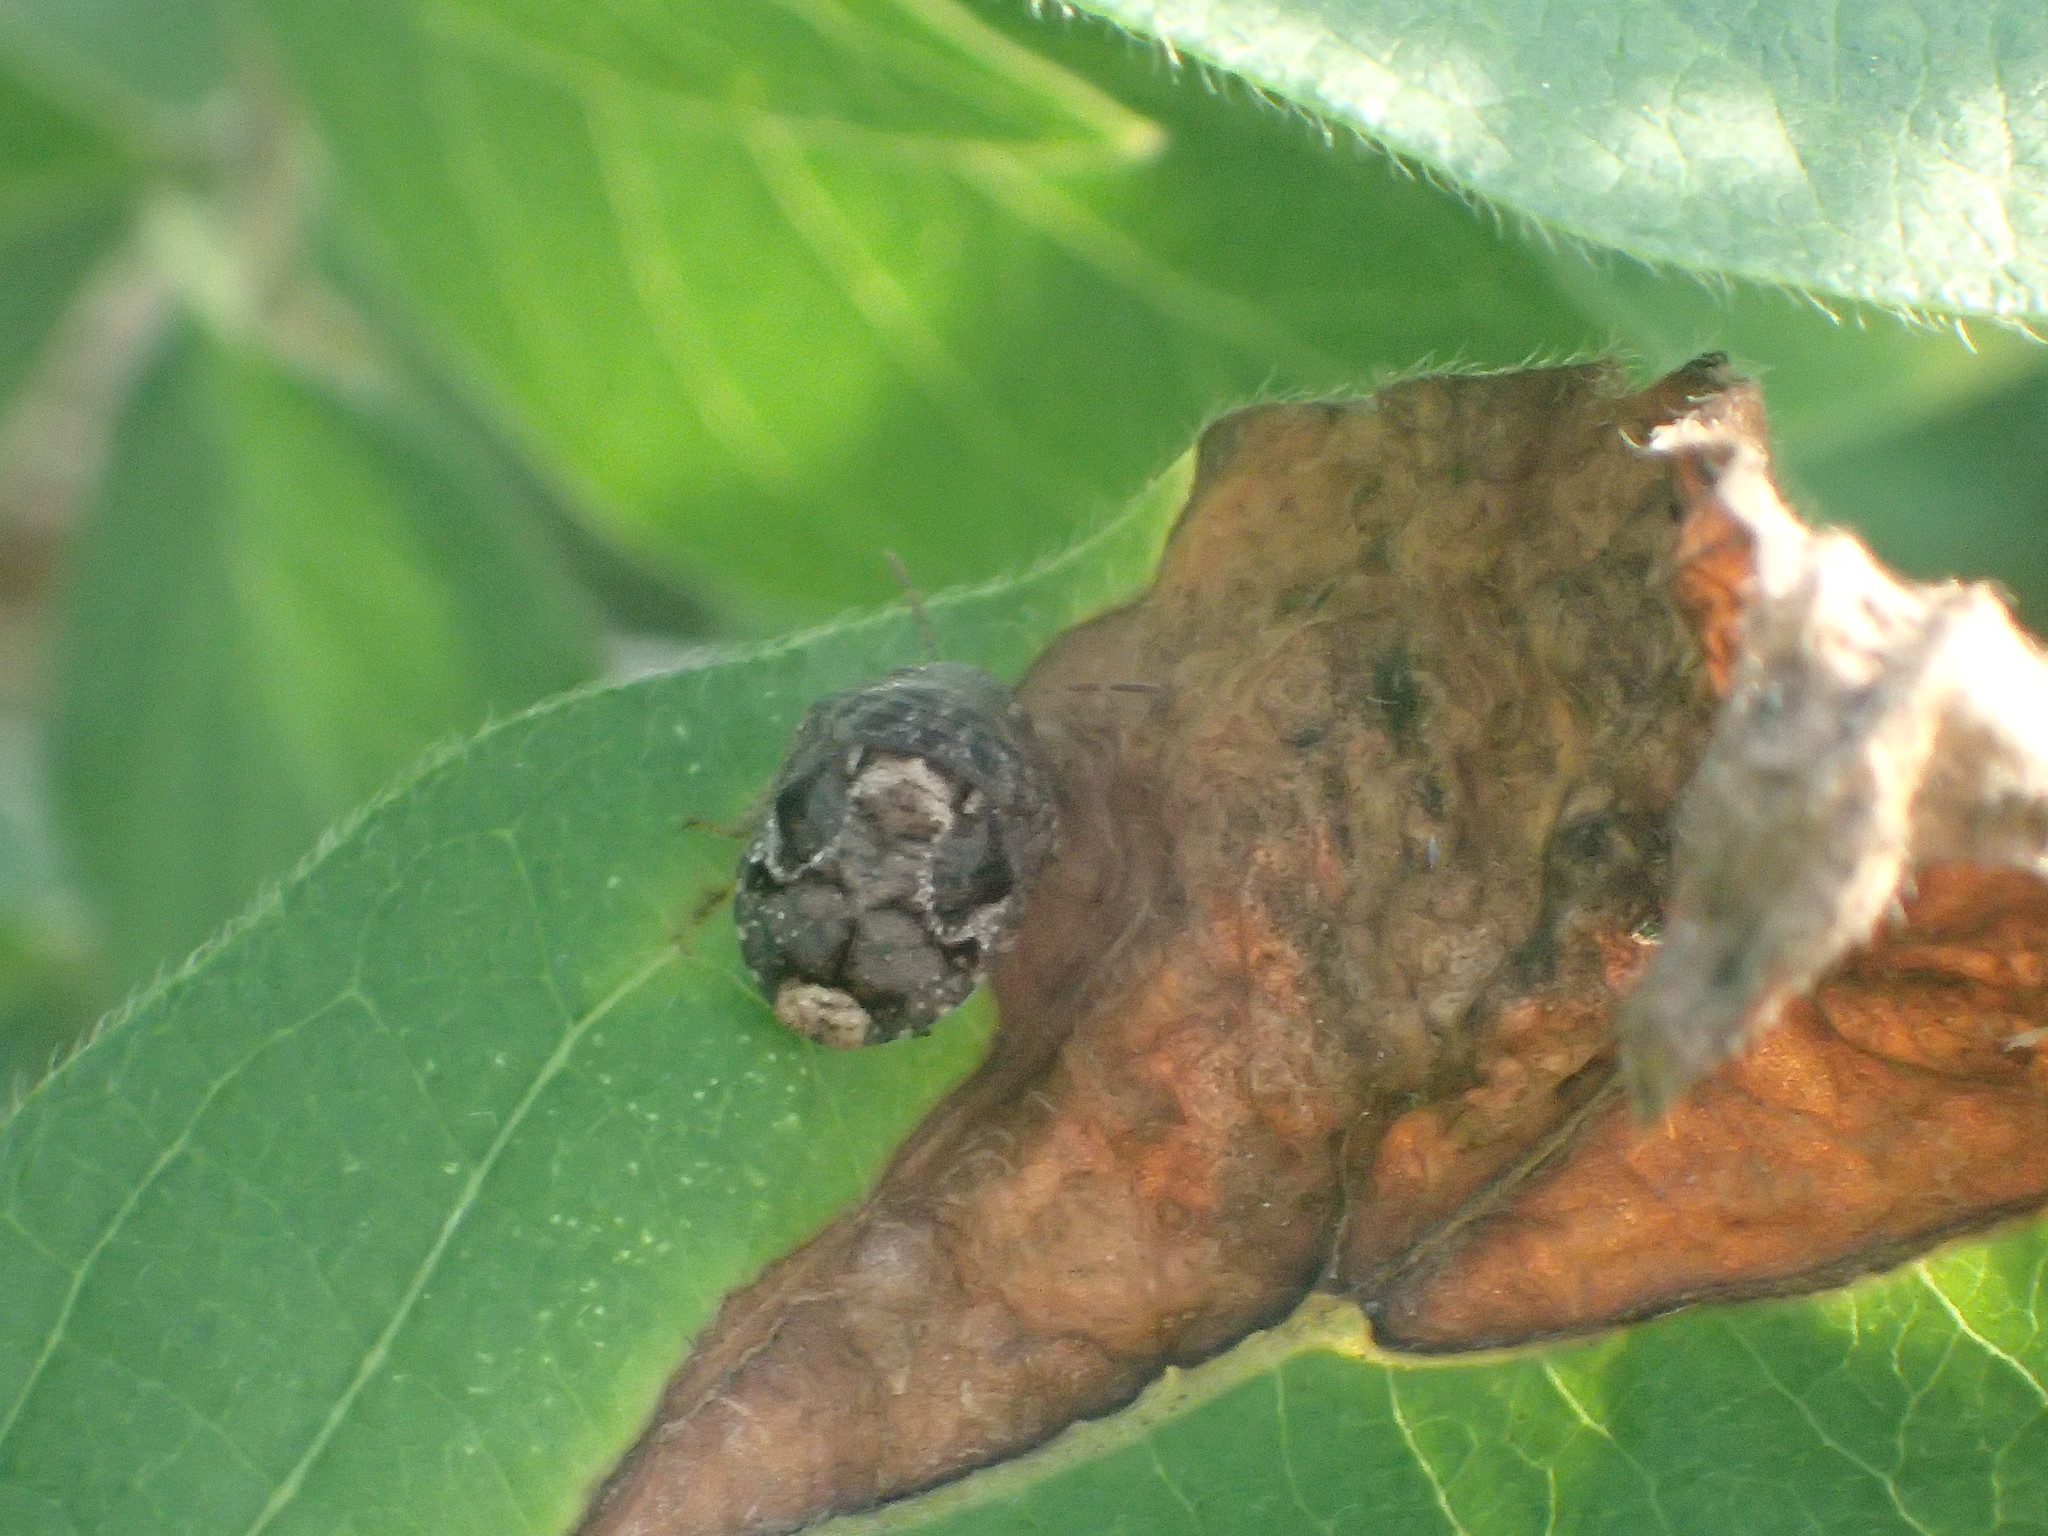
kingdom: Animalia
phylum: Arthropoda
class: Insecta
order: Hemiptera
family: Scutelleridae
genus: Stethaulax
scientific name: Stethaulax marmoratus
